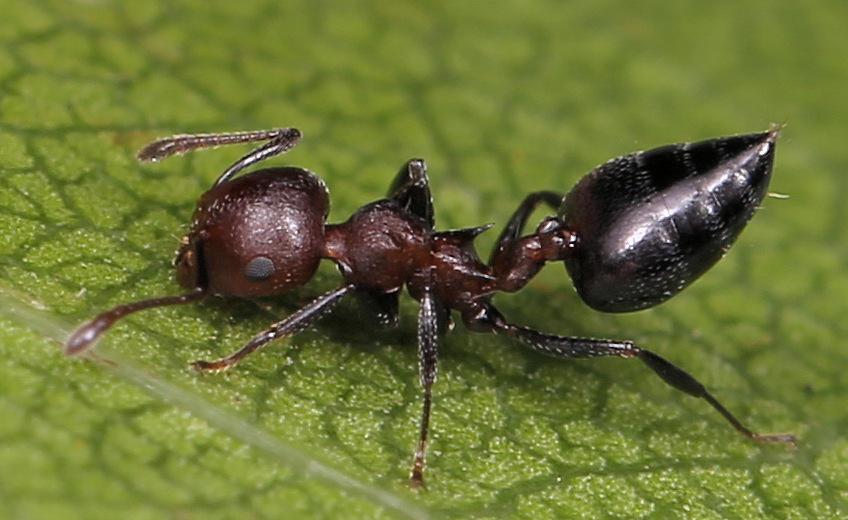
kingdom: Animalia
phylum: Arthropoda
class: Insecta
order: Hymenoptera
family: Formicidae
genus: Crematogaster
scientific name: Crematogaster castanea
